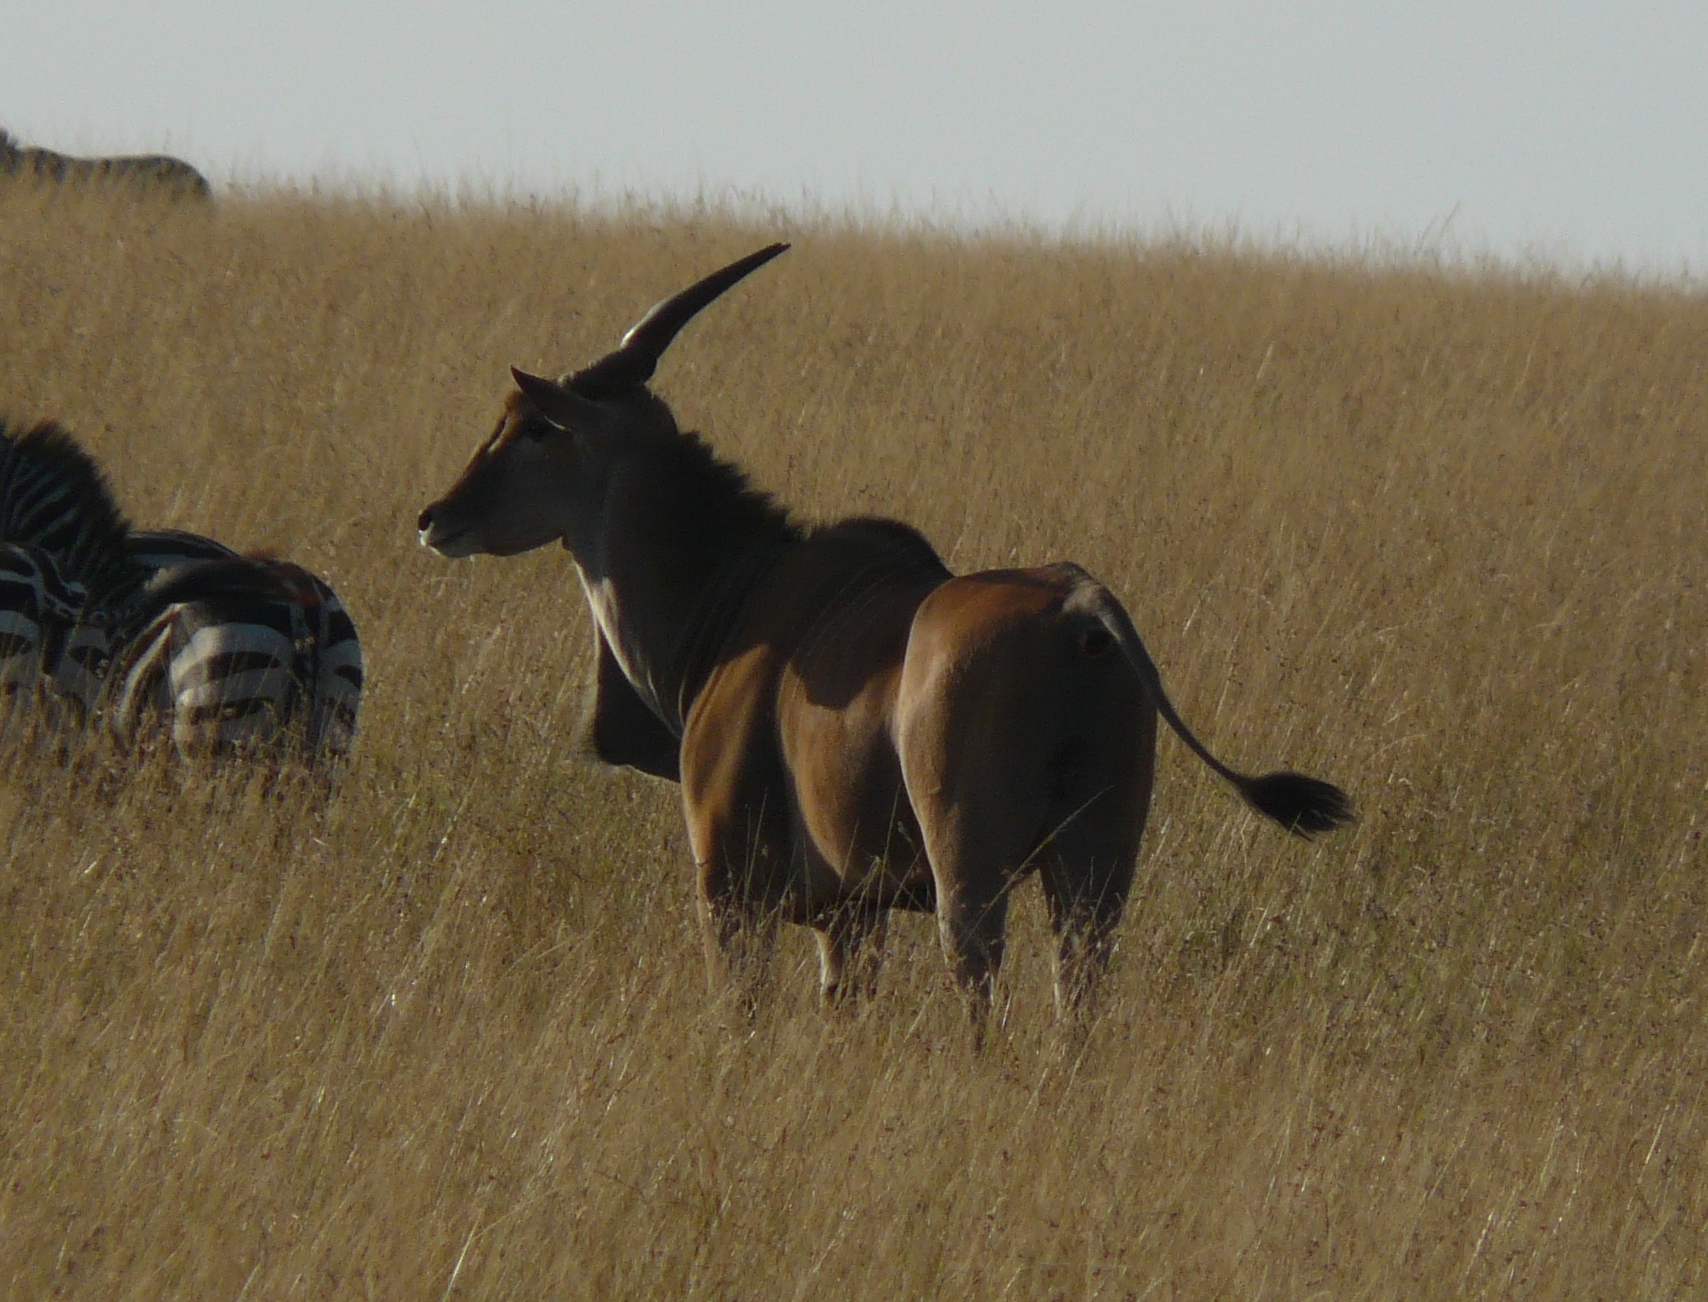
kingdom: Animalia
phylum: Chordata
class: Mammalia
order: Artiodactyla
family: Bovidae
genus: Taurotragus
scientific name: Taurotragus oryx
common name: Common eland
